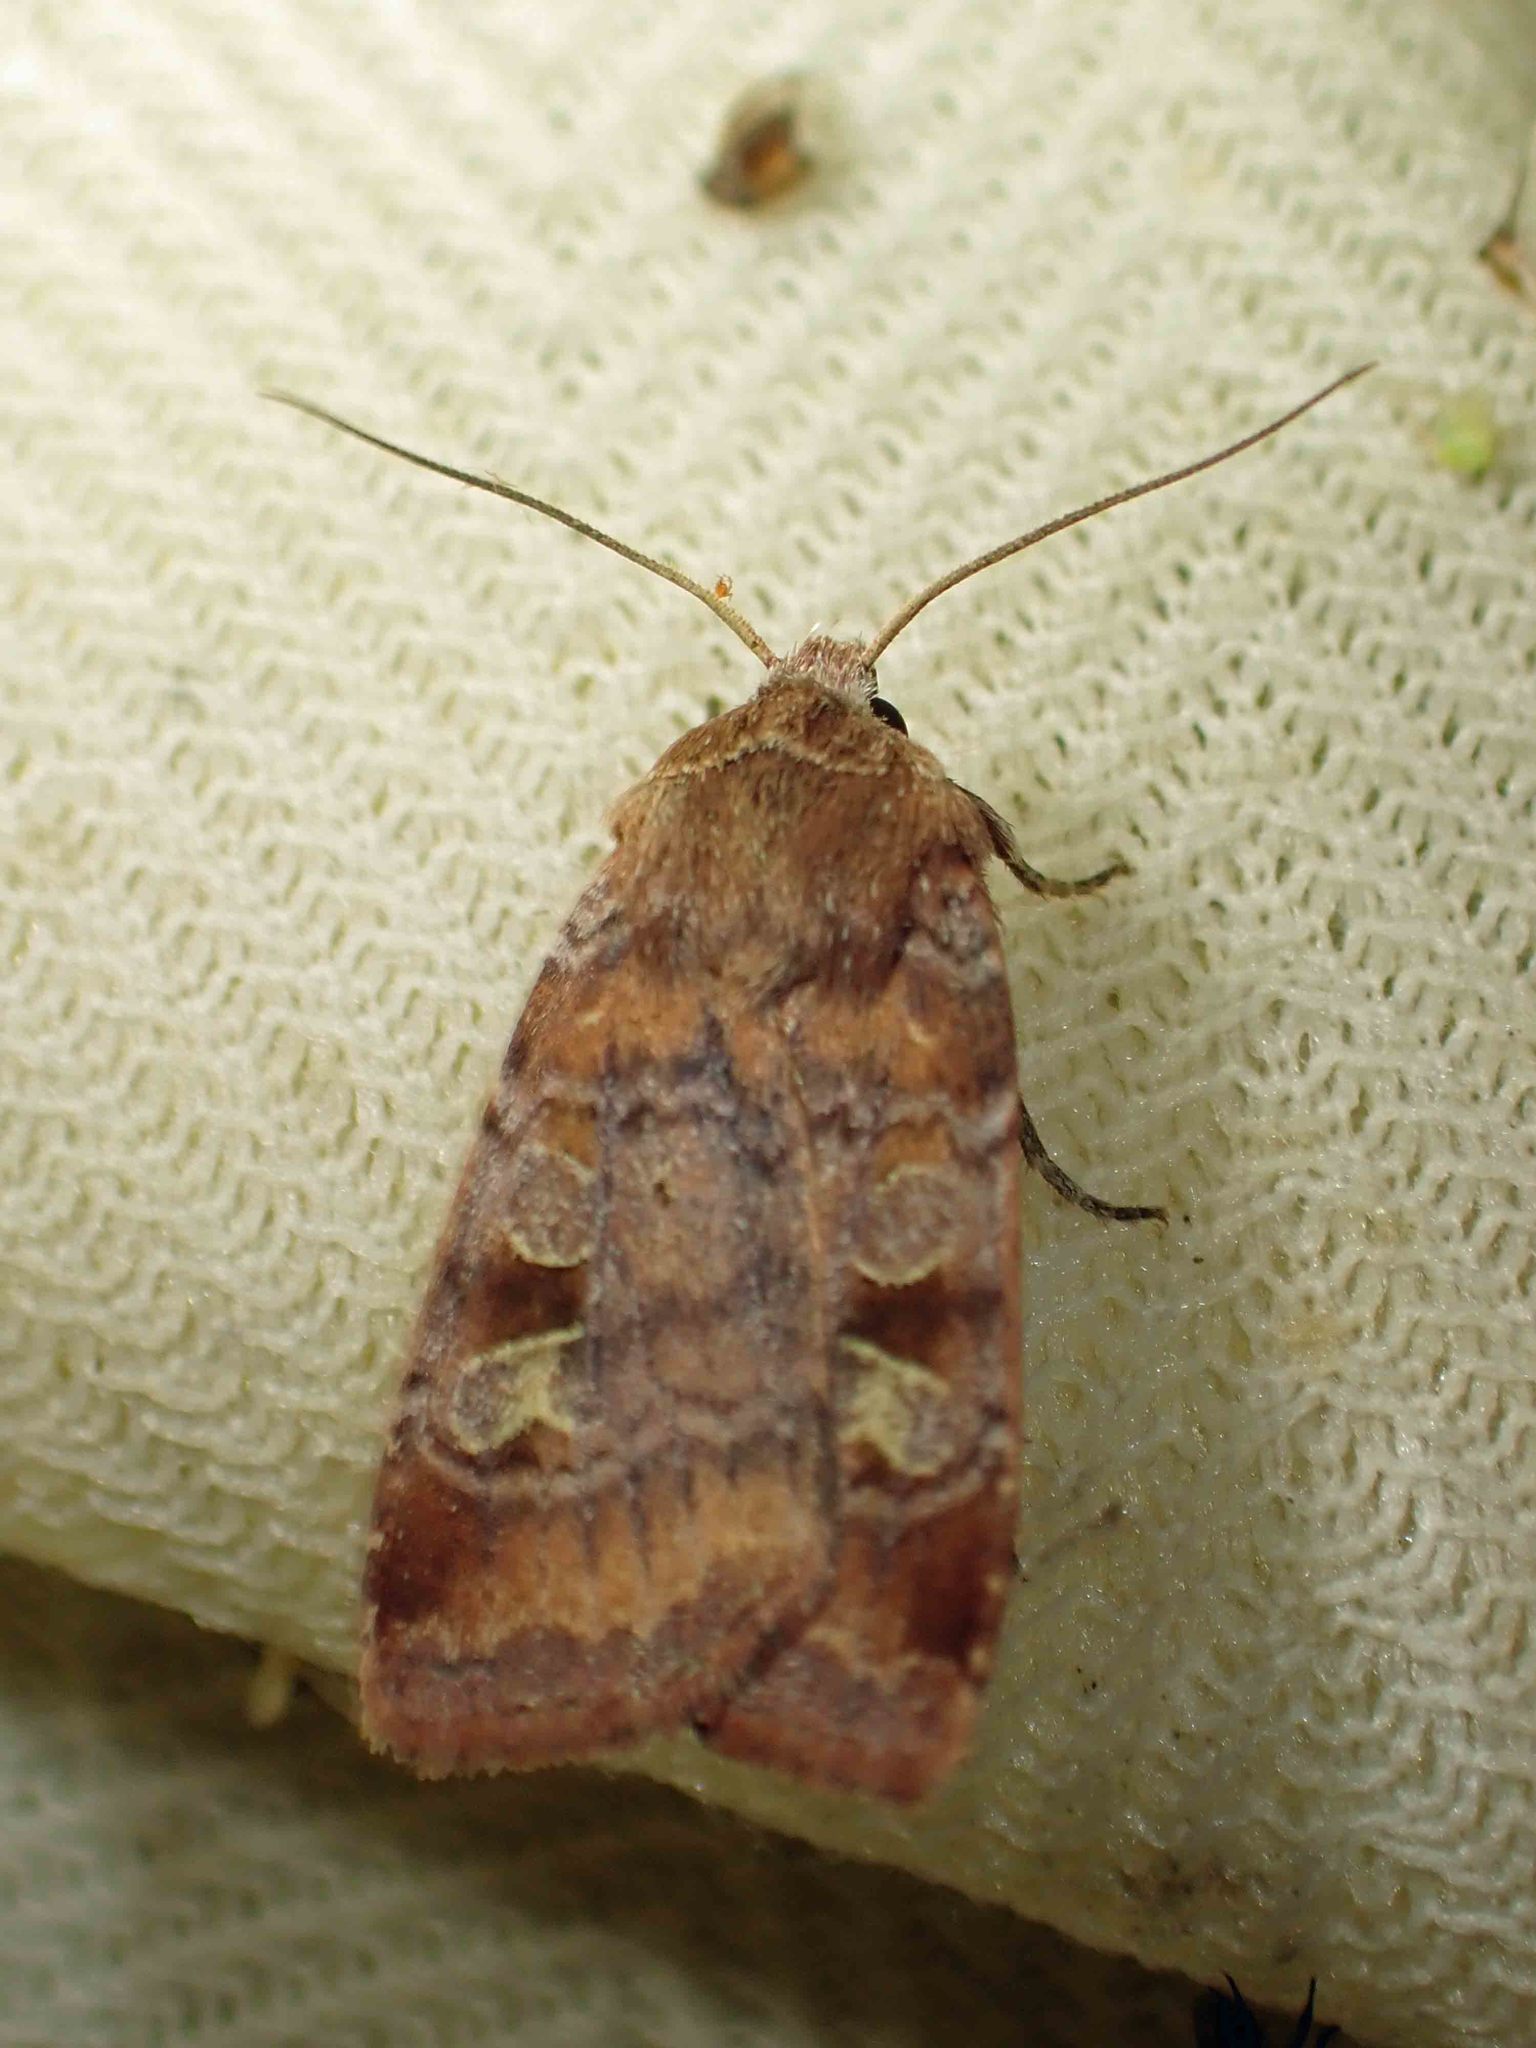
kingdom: Animalia
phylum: Arthropoda
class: Insecta
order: Lepidoptera
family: Noctuidae
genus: Cryptocala
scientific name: Cryptocala acadiensis
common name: Catocaline dart
